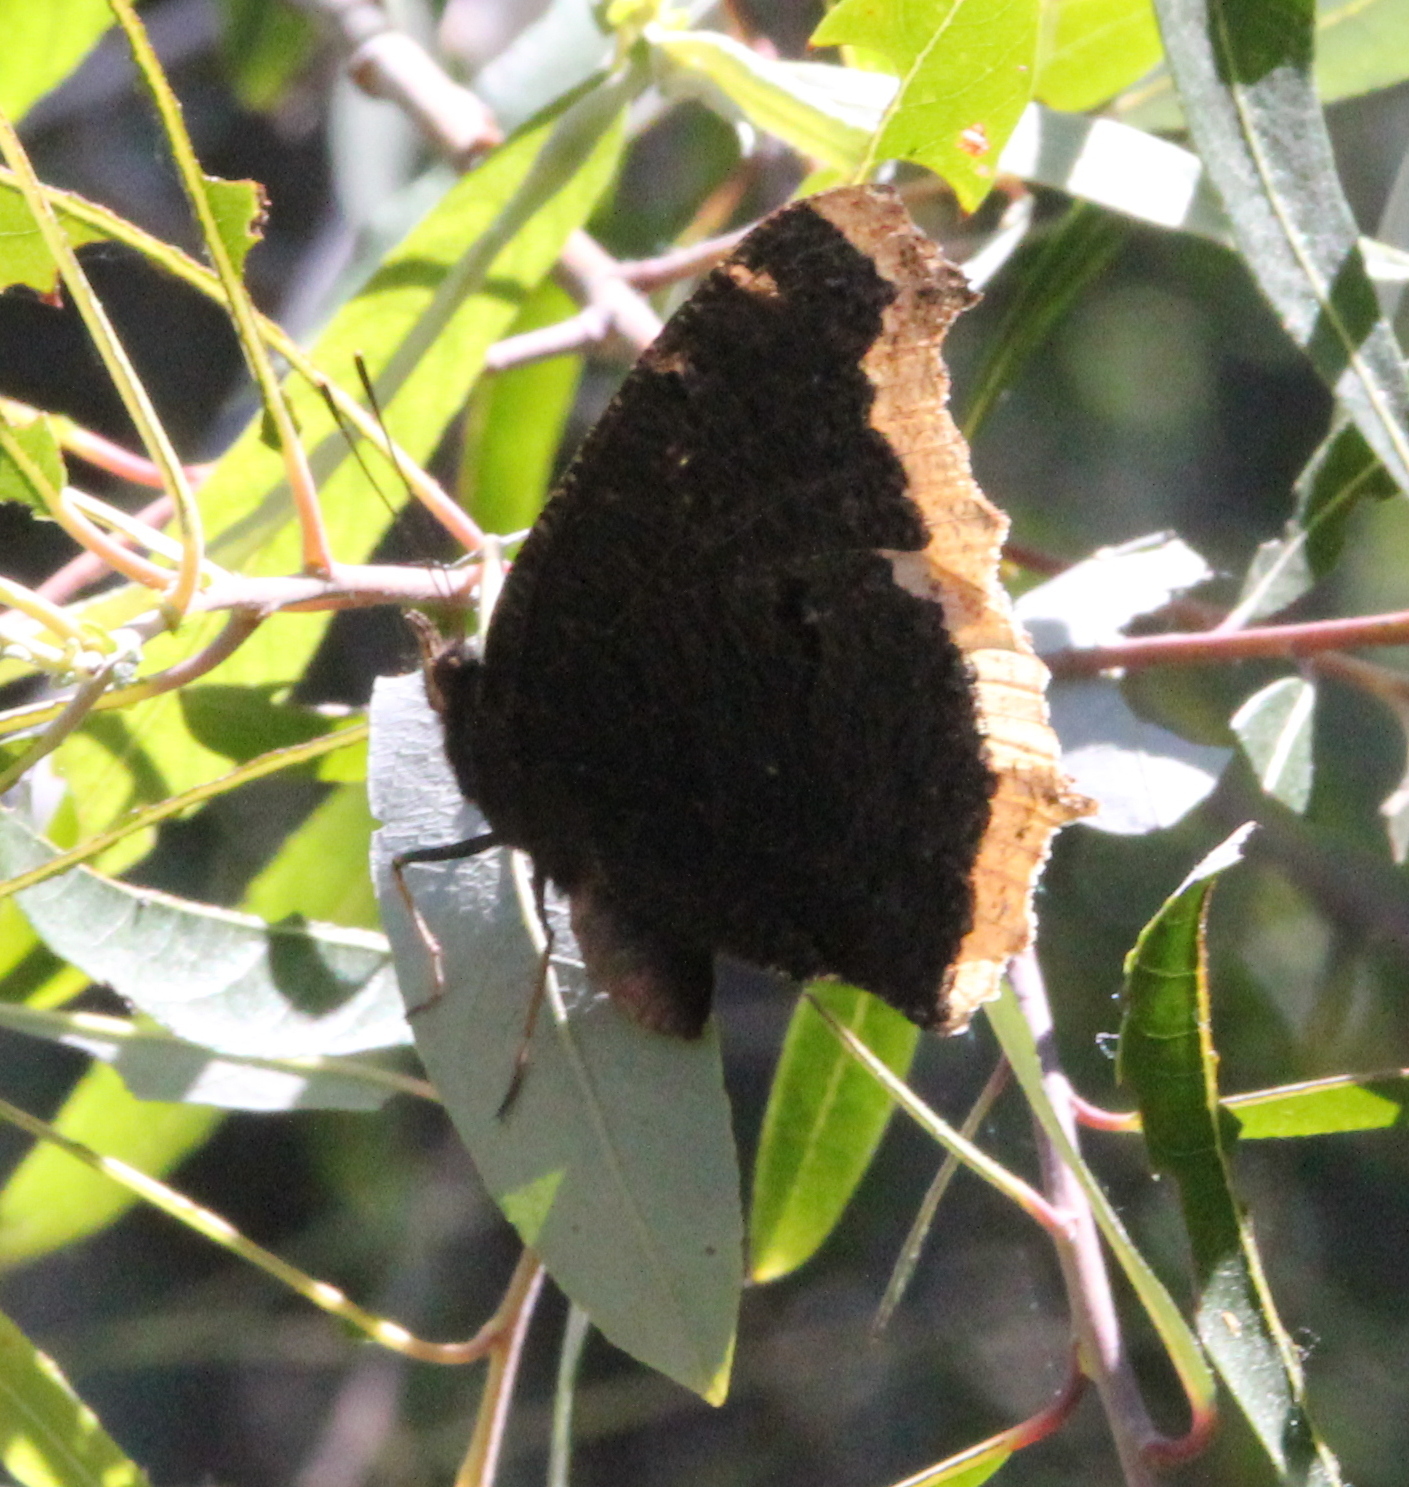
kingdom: Animalia
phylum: Arthropoda
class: Insecta
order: Lepidoptera
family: Nymphalidae
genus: Nymphalis
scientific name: Nymphalis antiopa
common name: Camberwell beauty
